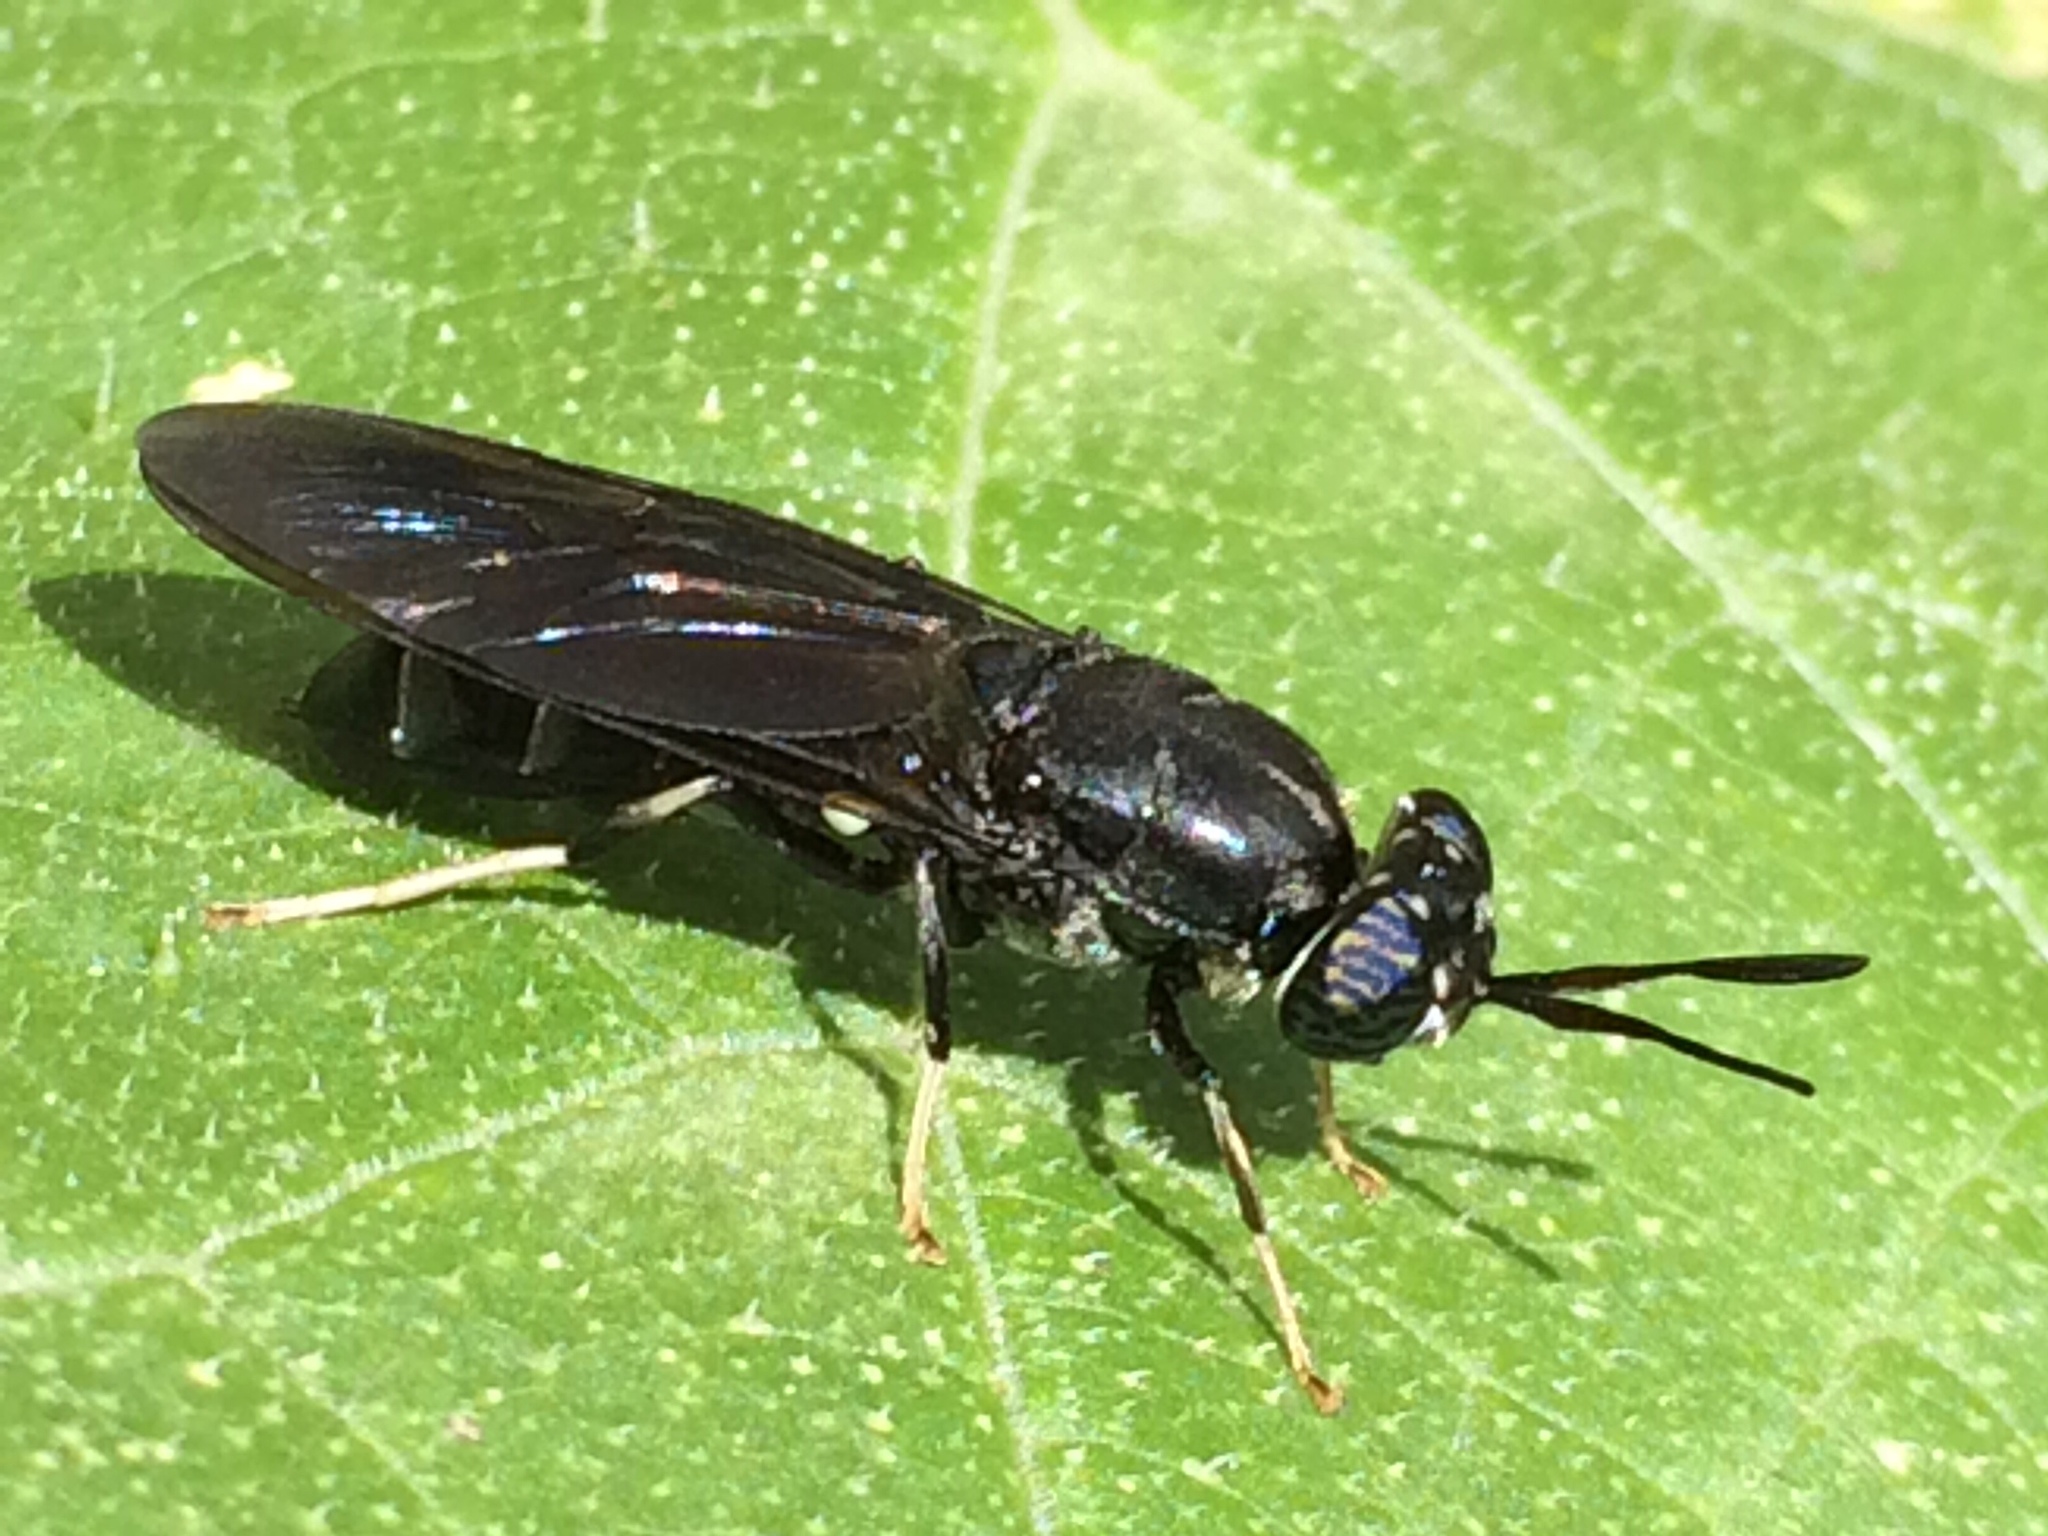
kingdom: Animalia
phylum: Arthropoda
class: Insecta
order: Diptera
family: Stratiomyidae
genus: Hermetia
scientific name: Hermetia illucens
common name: Black soldier fly
